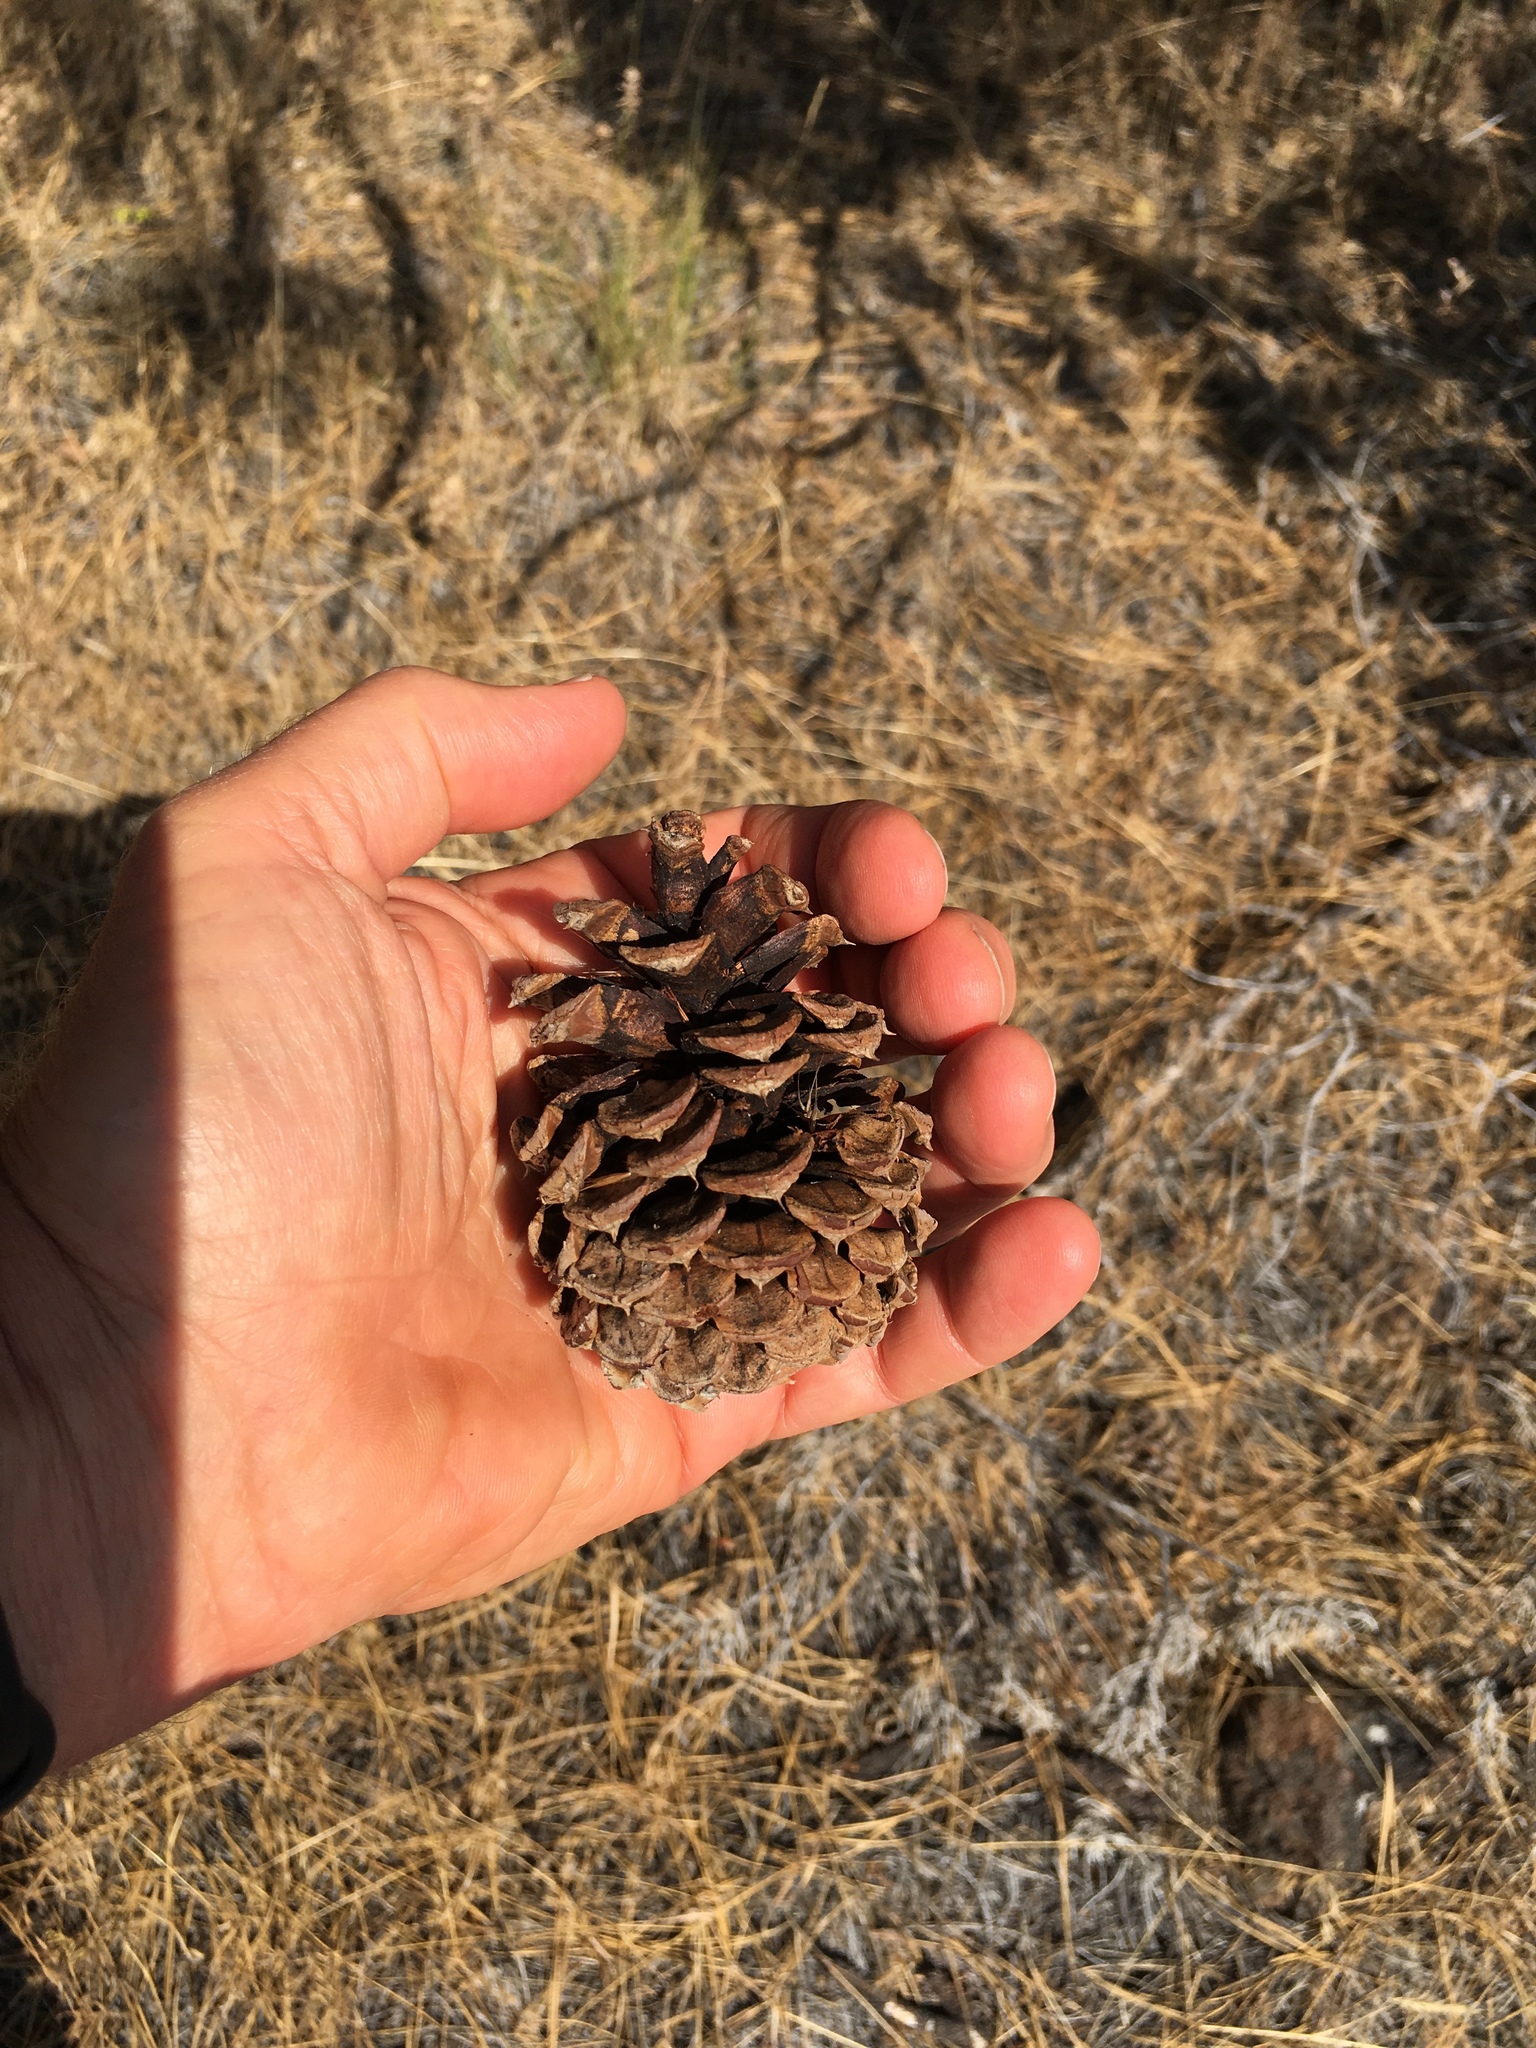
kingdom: Plantae
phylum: Tracheophyta
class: Pinopsida
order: Pinales
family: Pinaceae
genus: Pinus
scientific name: Pinus ponderosa
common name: Western yellow-pine
